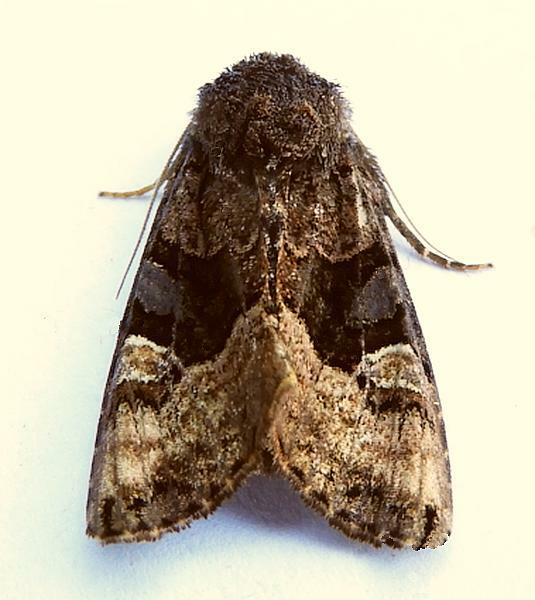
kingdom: Animalia
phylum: Arthropoda
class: Insecta
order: Lepidoptera
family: Noctuidae
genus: Euplexia
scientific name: Euplexia benesimilis
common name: American angle shades
